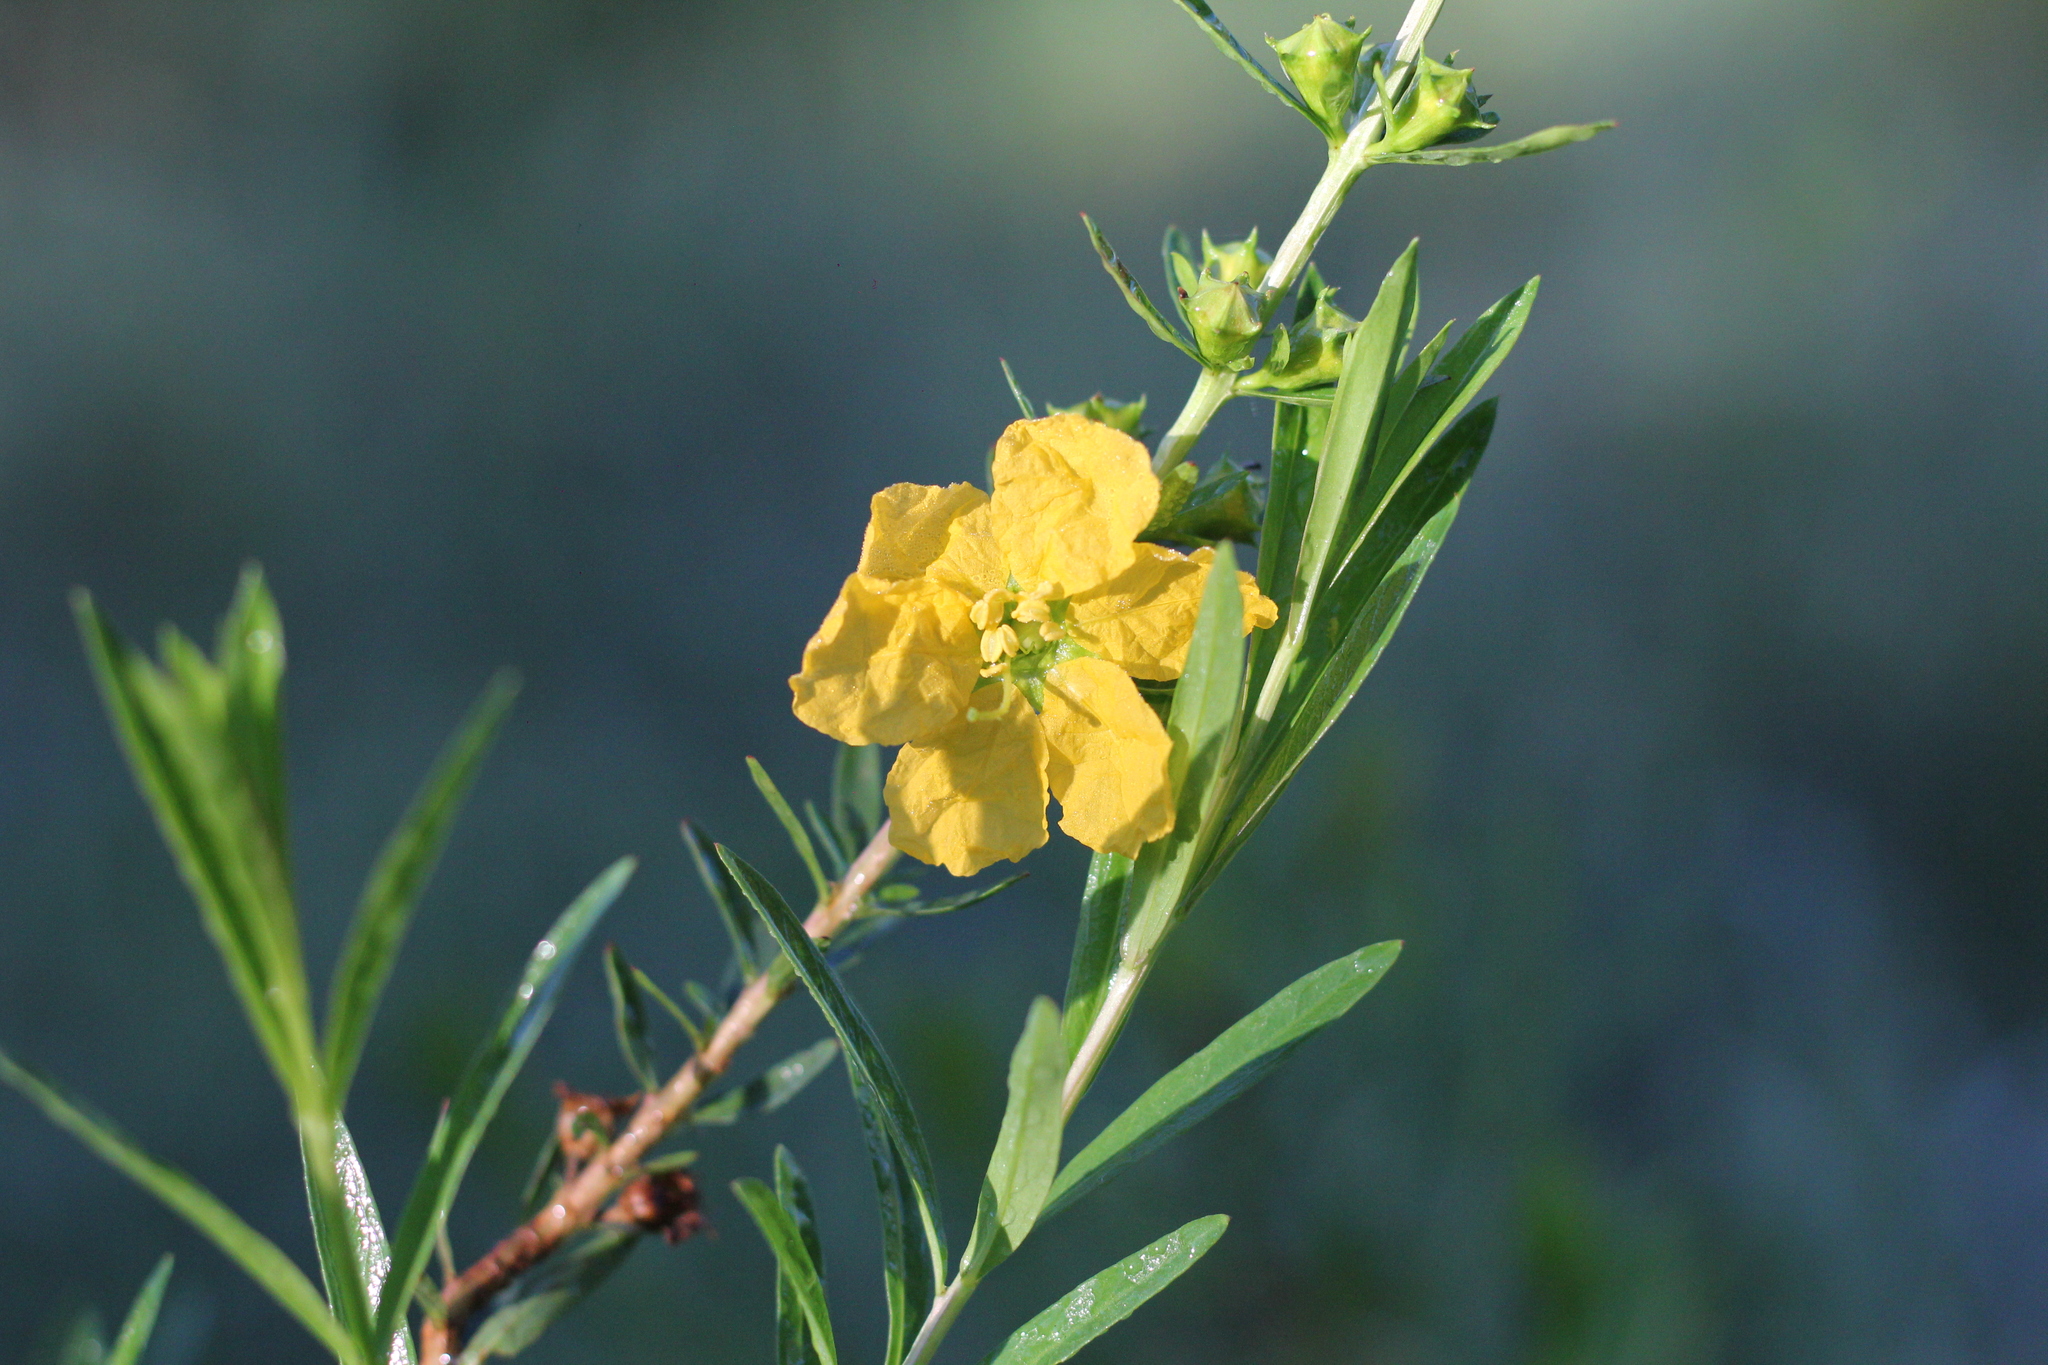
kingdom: Plantae
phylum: Tracheophyta
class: Magnoliopsida
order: Myrtales
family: Lythraceae
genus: Heimia
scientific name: Heimia salicifolia
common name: Willow-leaf heimia
